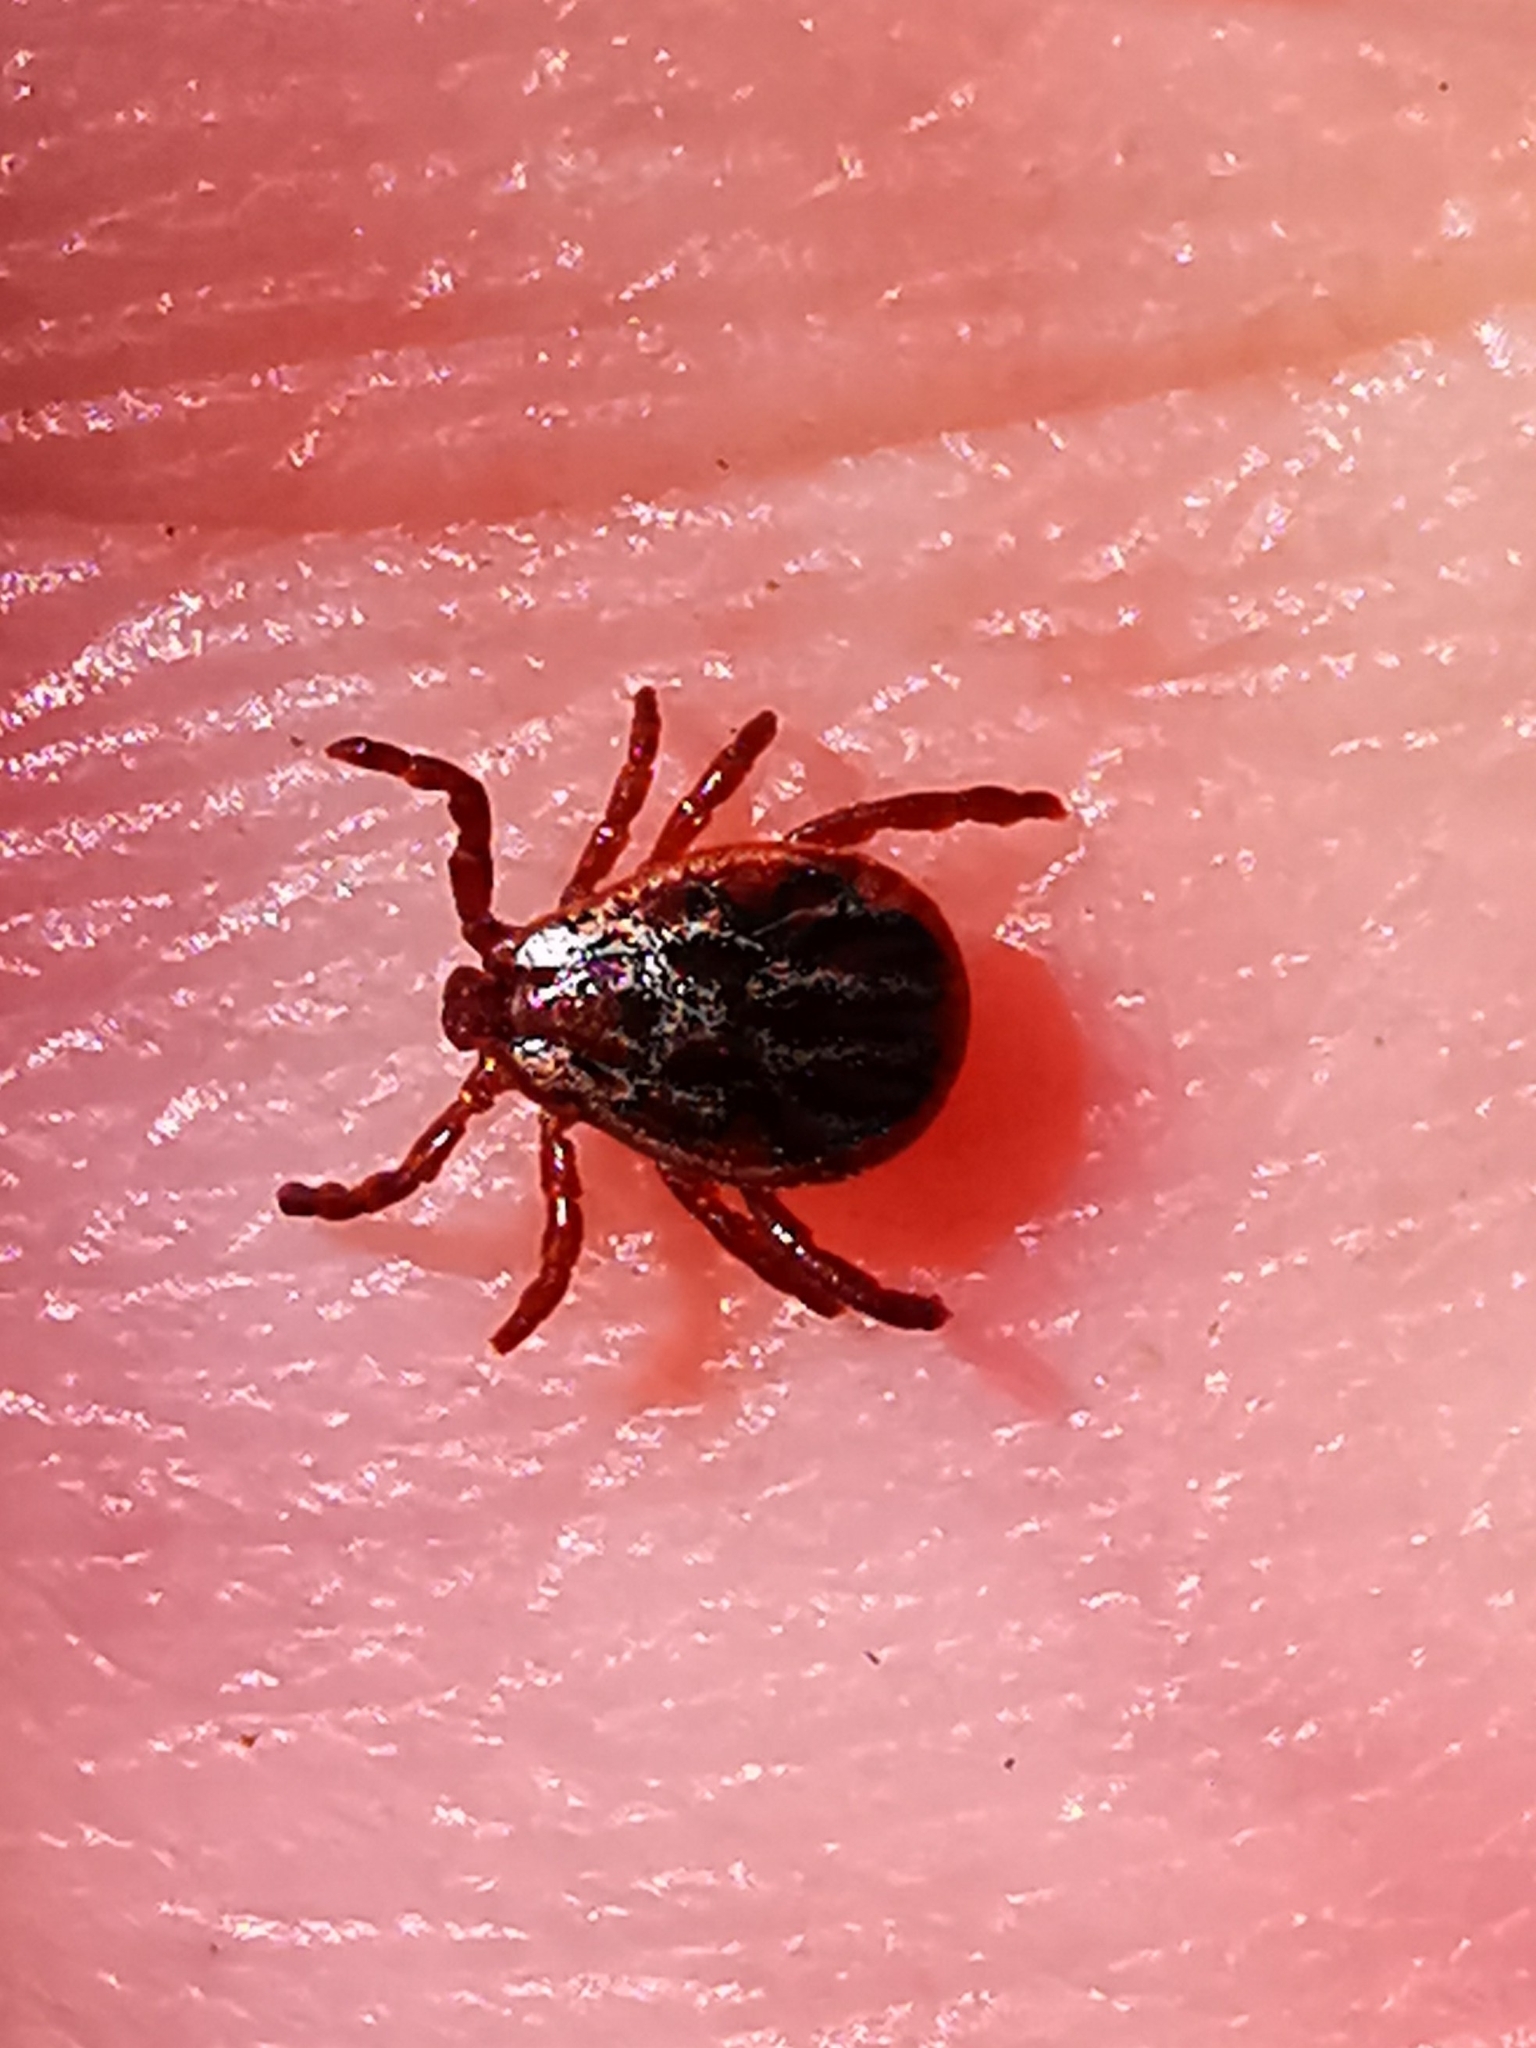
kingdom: Animalia
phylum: Arthropoda
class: Arachnida
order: Ixodida
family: Ixodidae
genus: Dermacentor
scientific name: Dermacentor reticulatus
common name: Ornate cow tick
